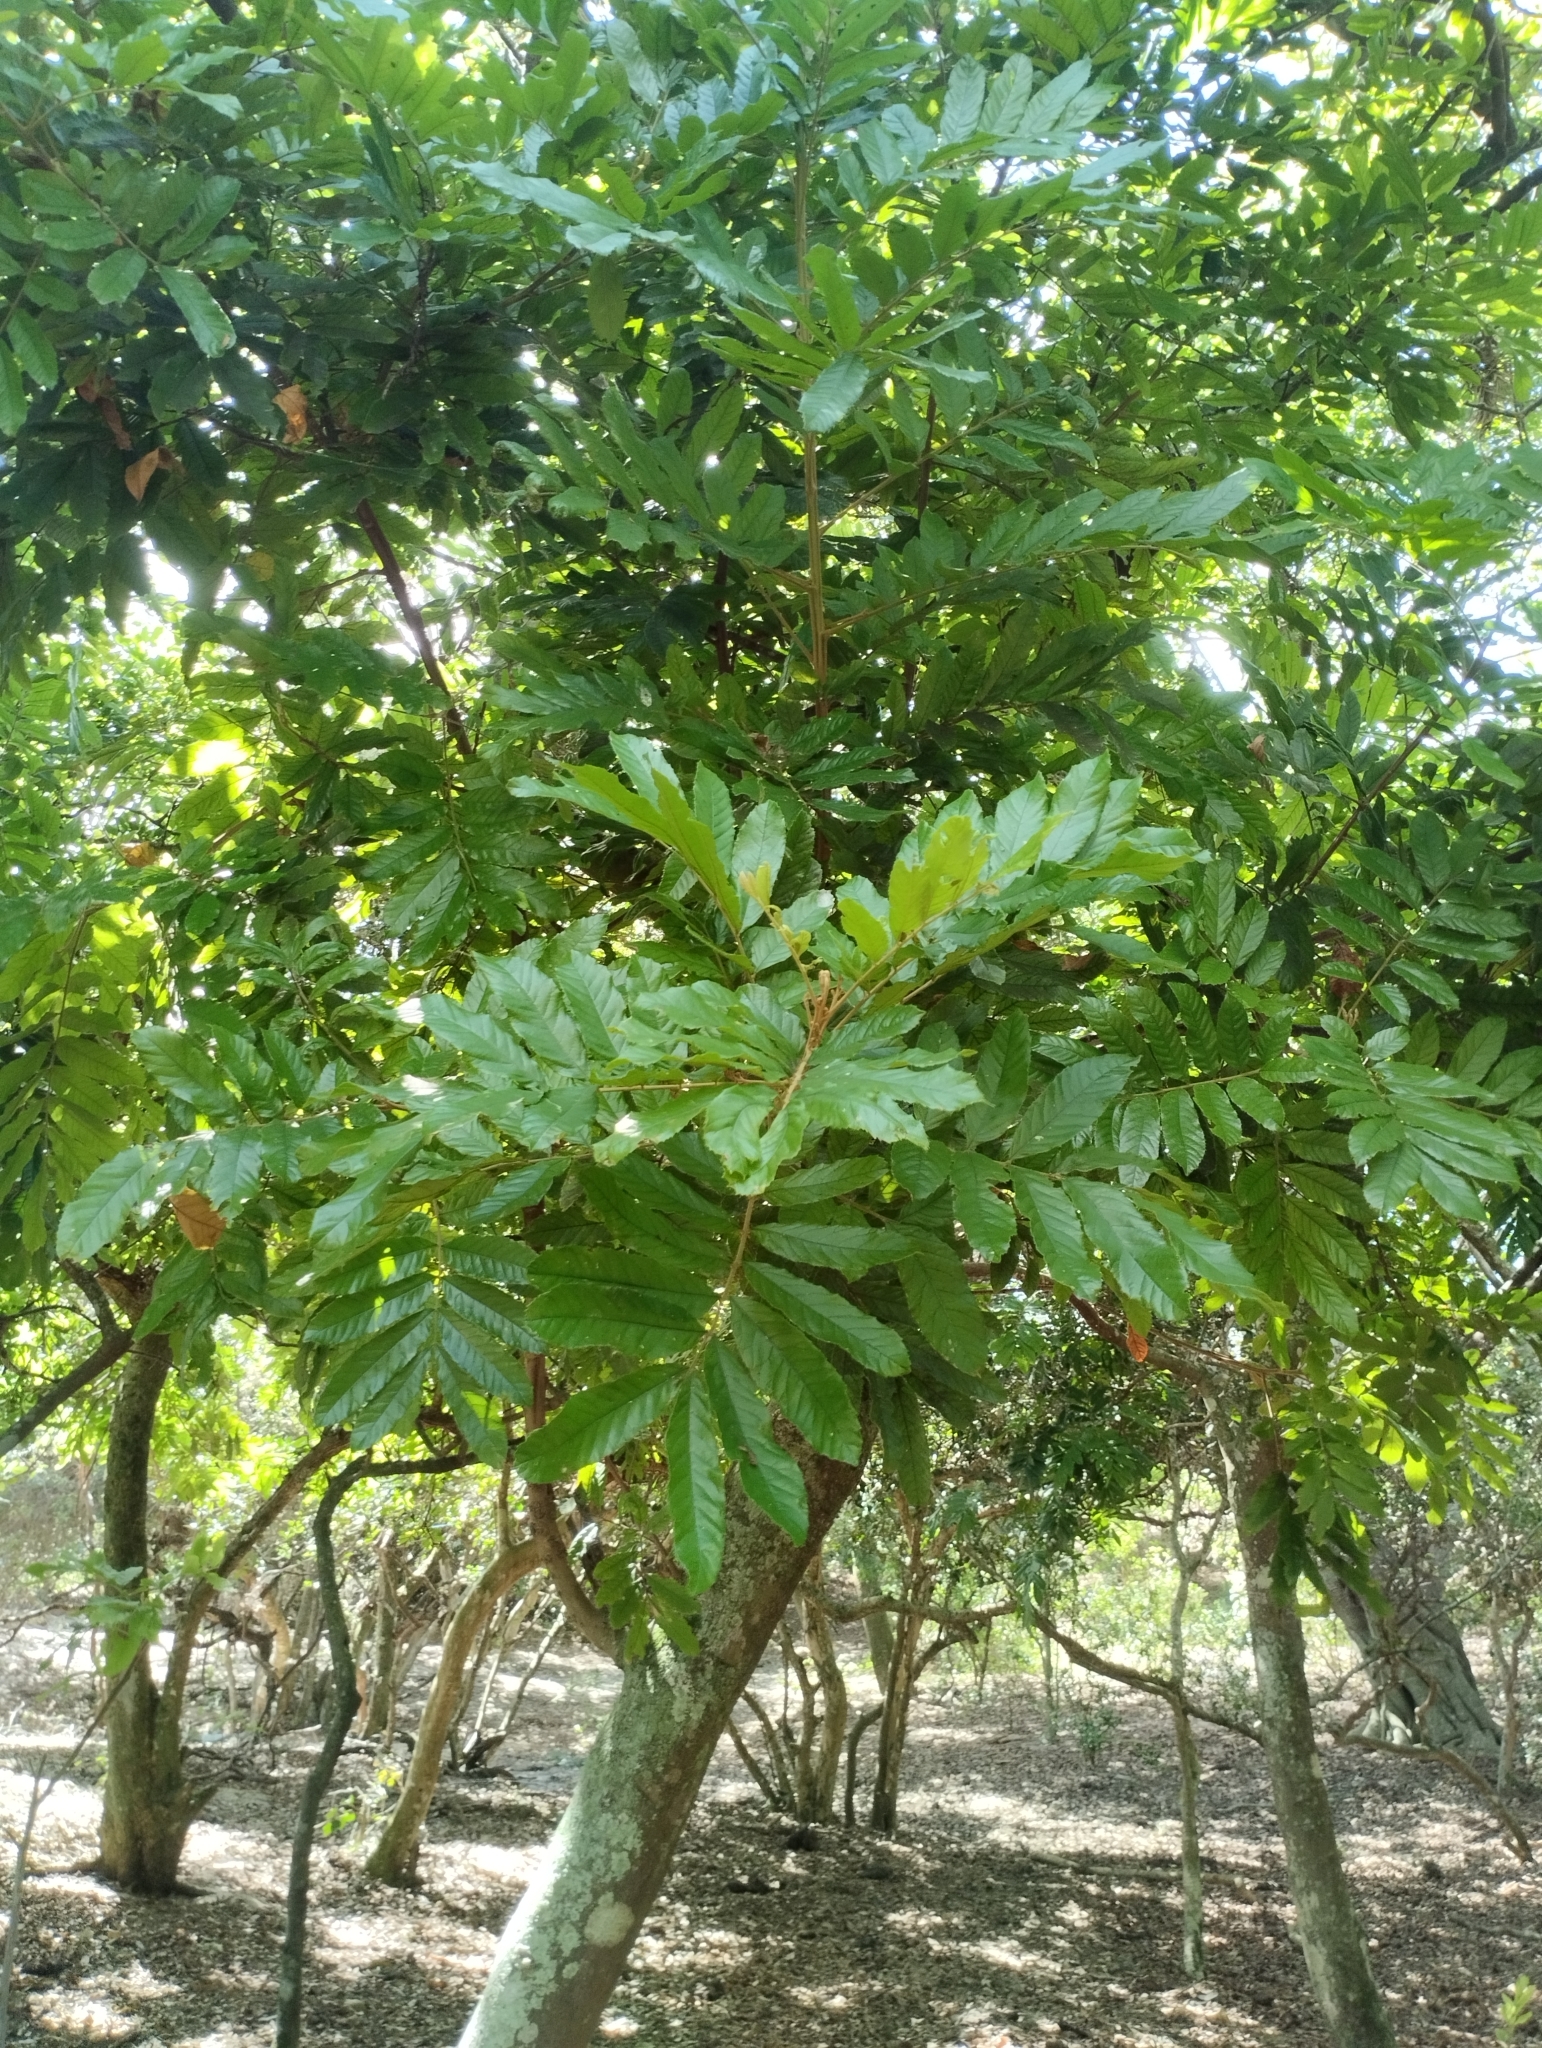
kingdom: Plantae
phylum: Tracheophyta
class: Magnoliopsida
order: Sapindales
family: Sapindaceae
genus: Cupania
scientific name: Cupania vernalis
